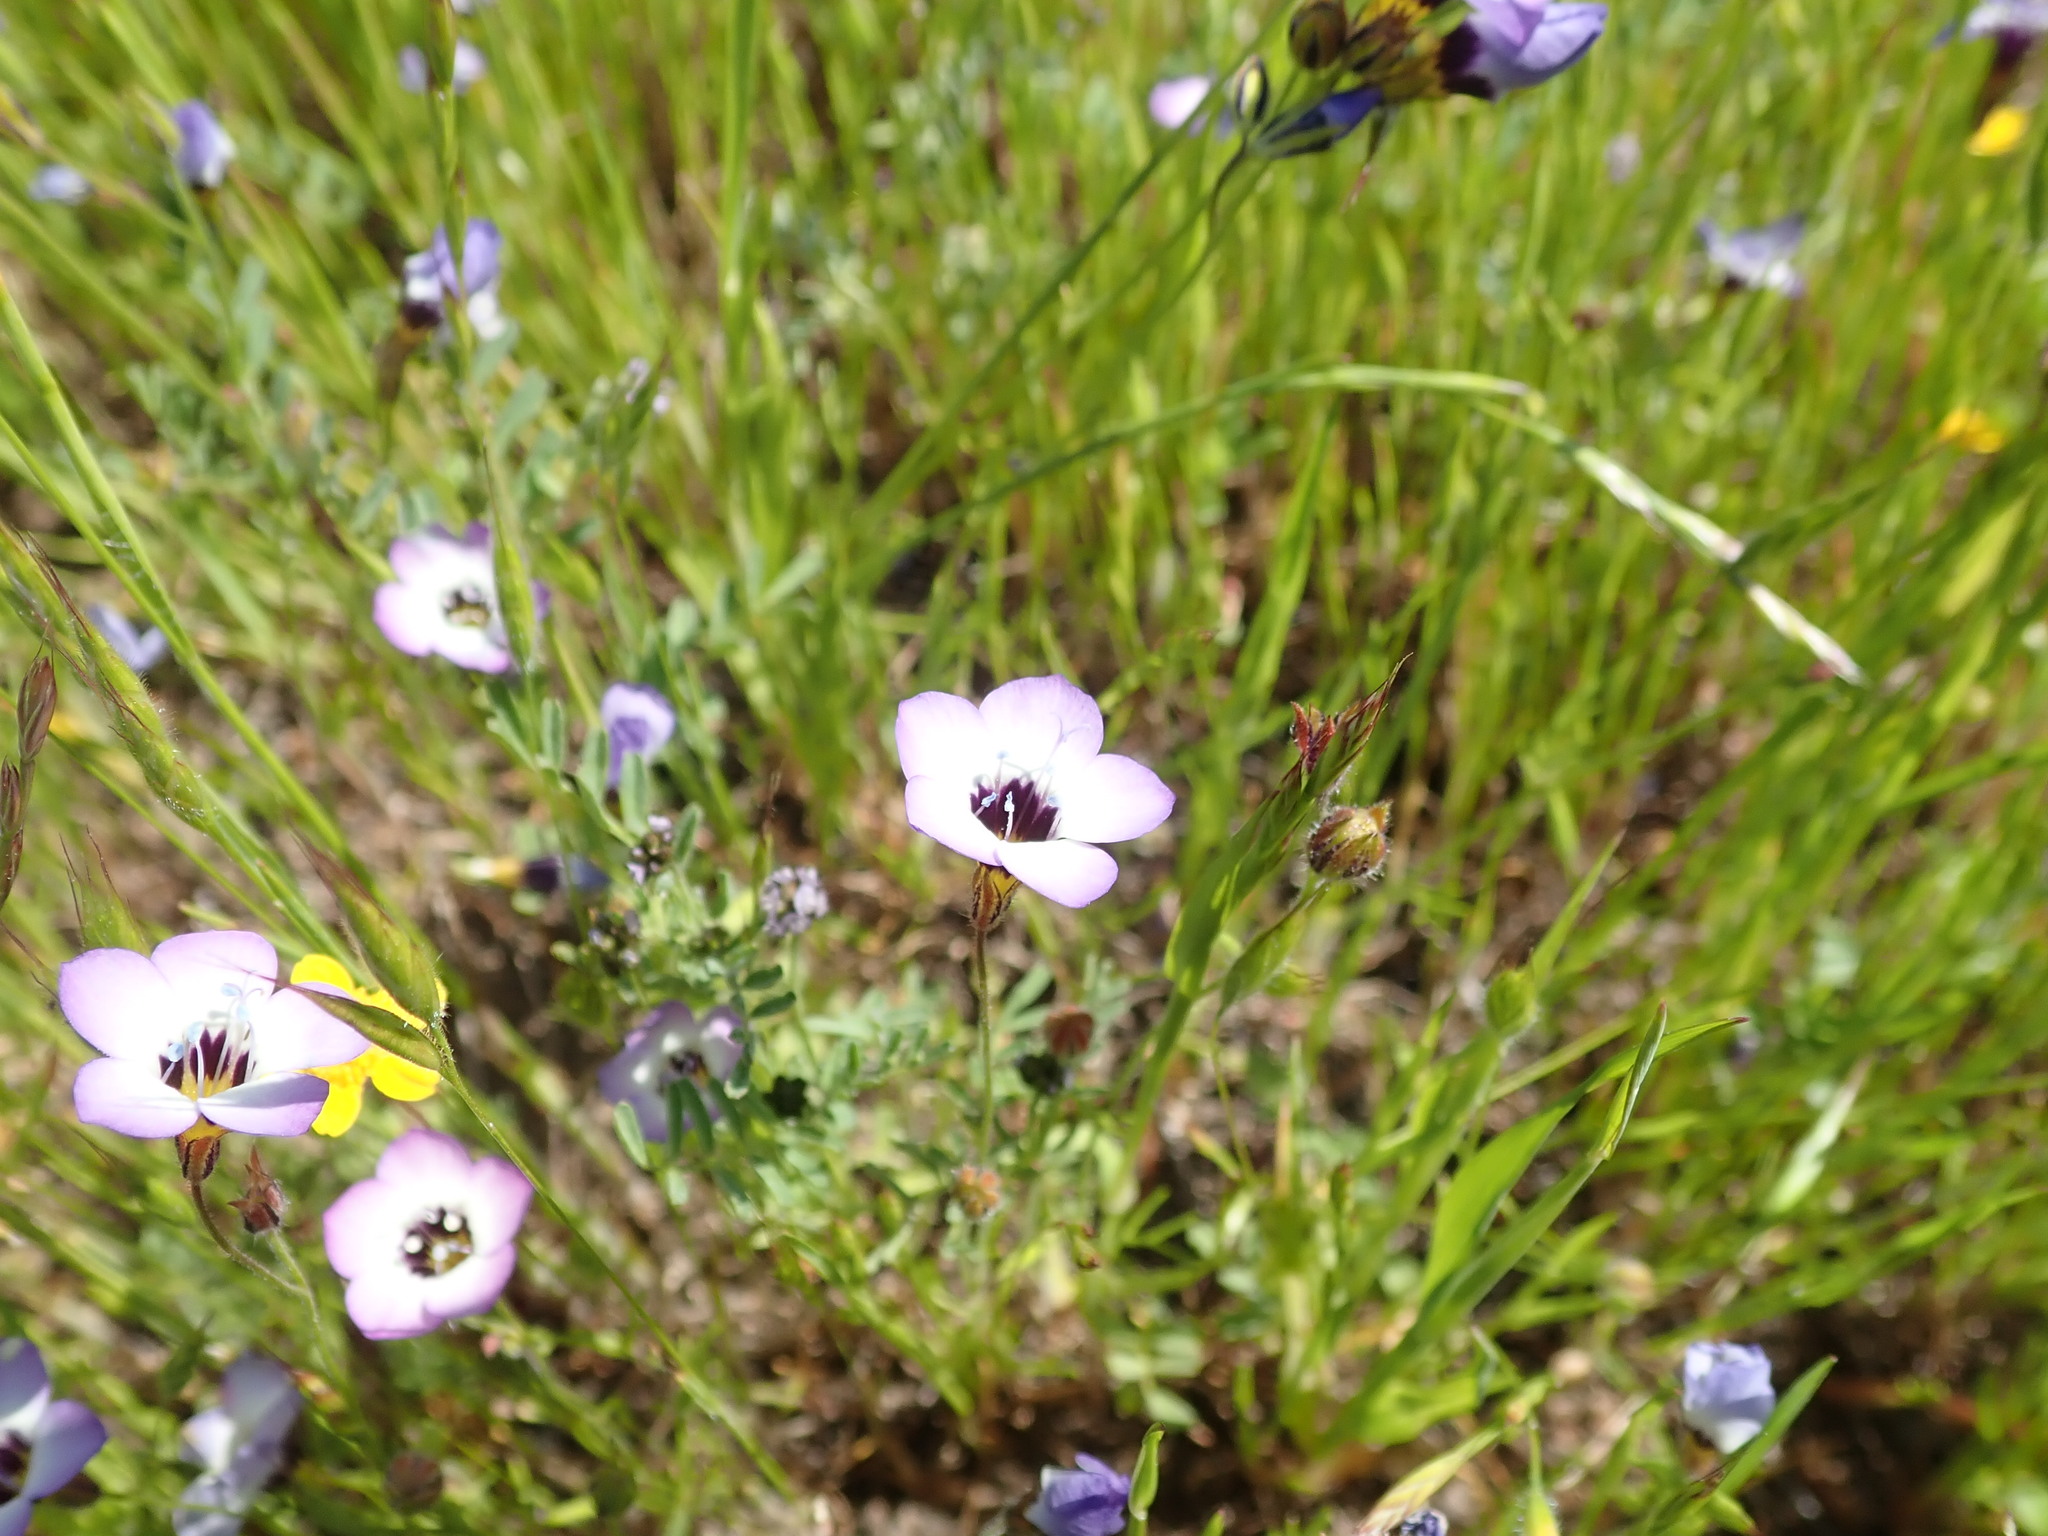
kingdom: Plantae
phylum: Tracheophyta
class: Magnoliopsida
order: Ericales
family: Polemoniaceae
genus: Gilia
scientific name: Gilia tricolor
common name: Bird's-eyes
